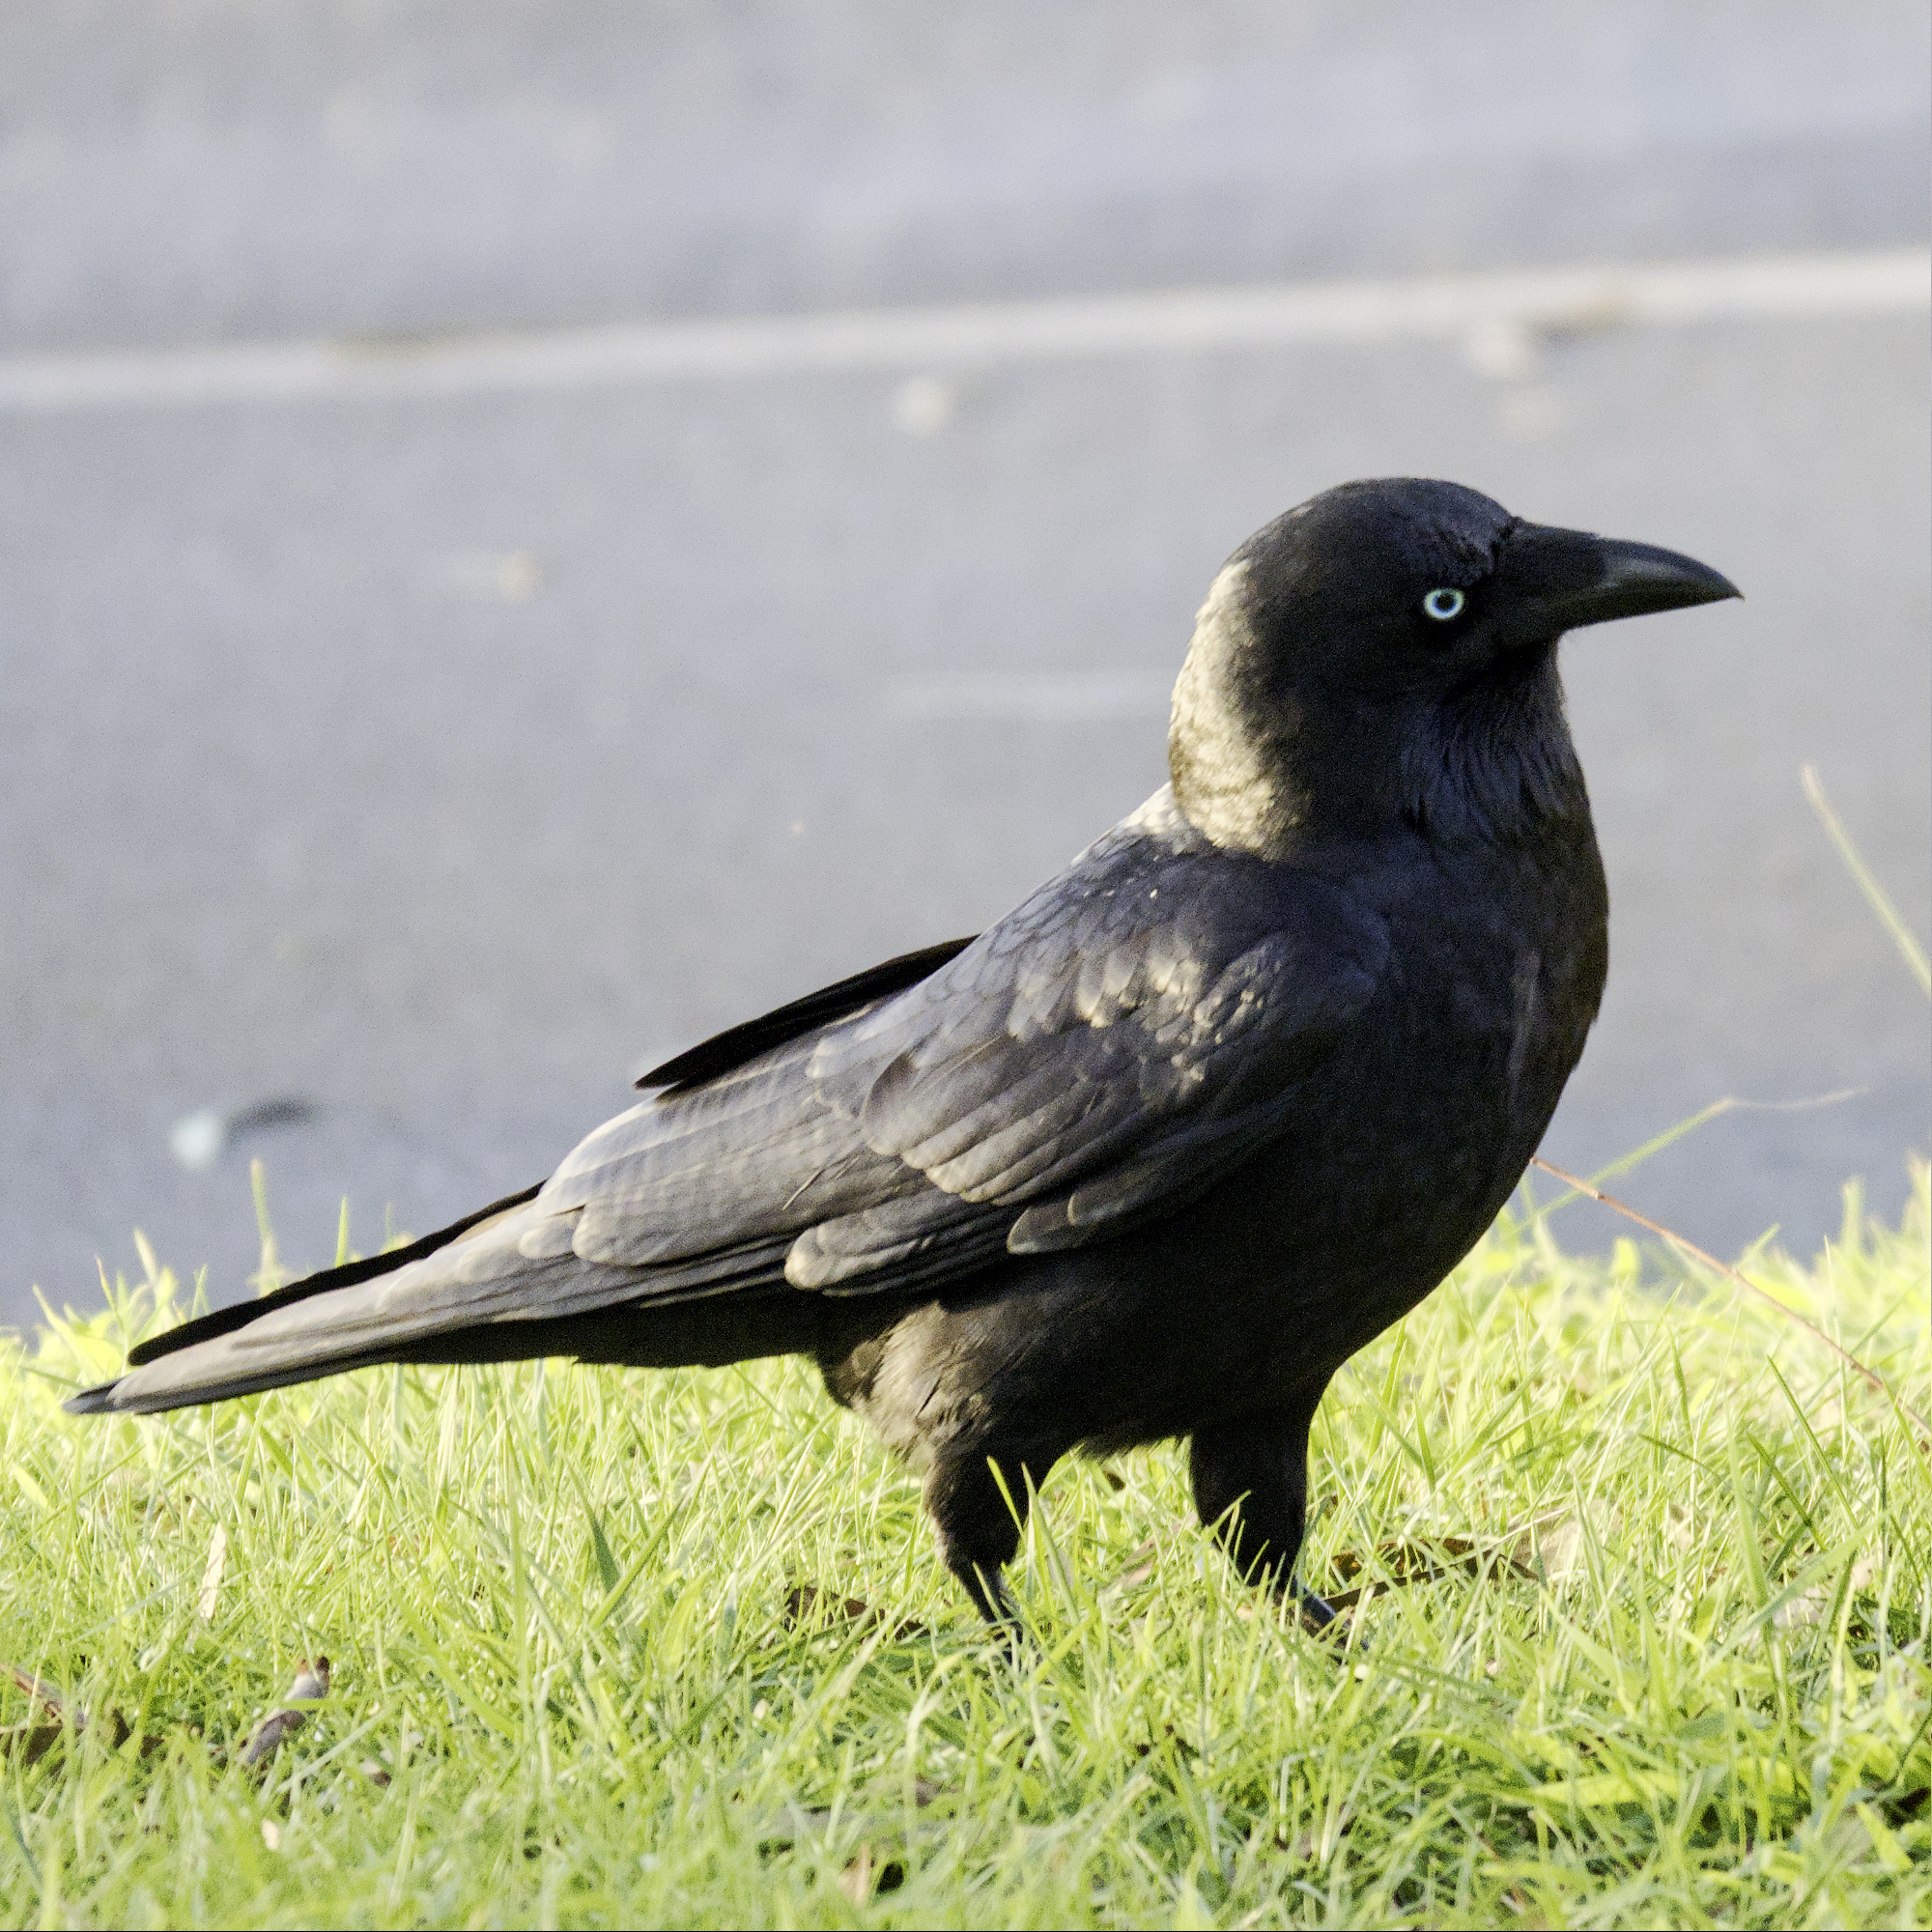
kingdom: Animalia
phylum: Chordata
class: Aves
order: Passeriformes
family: Corvidae
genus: Corvus
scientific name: Corvus mellori
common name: Little raven
